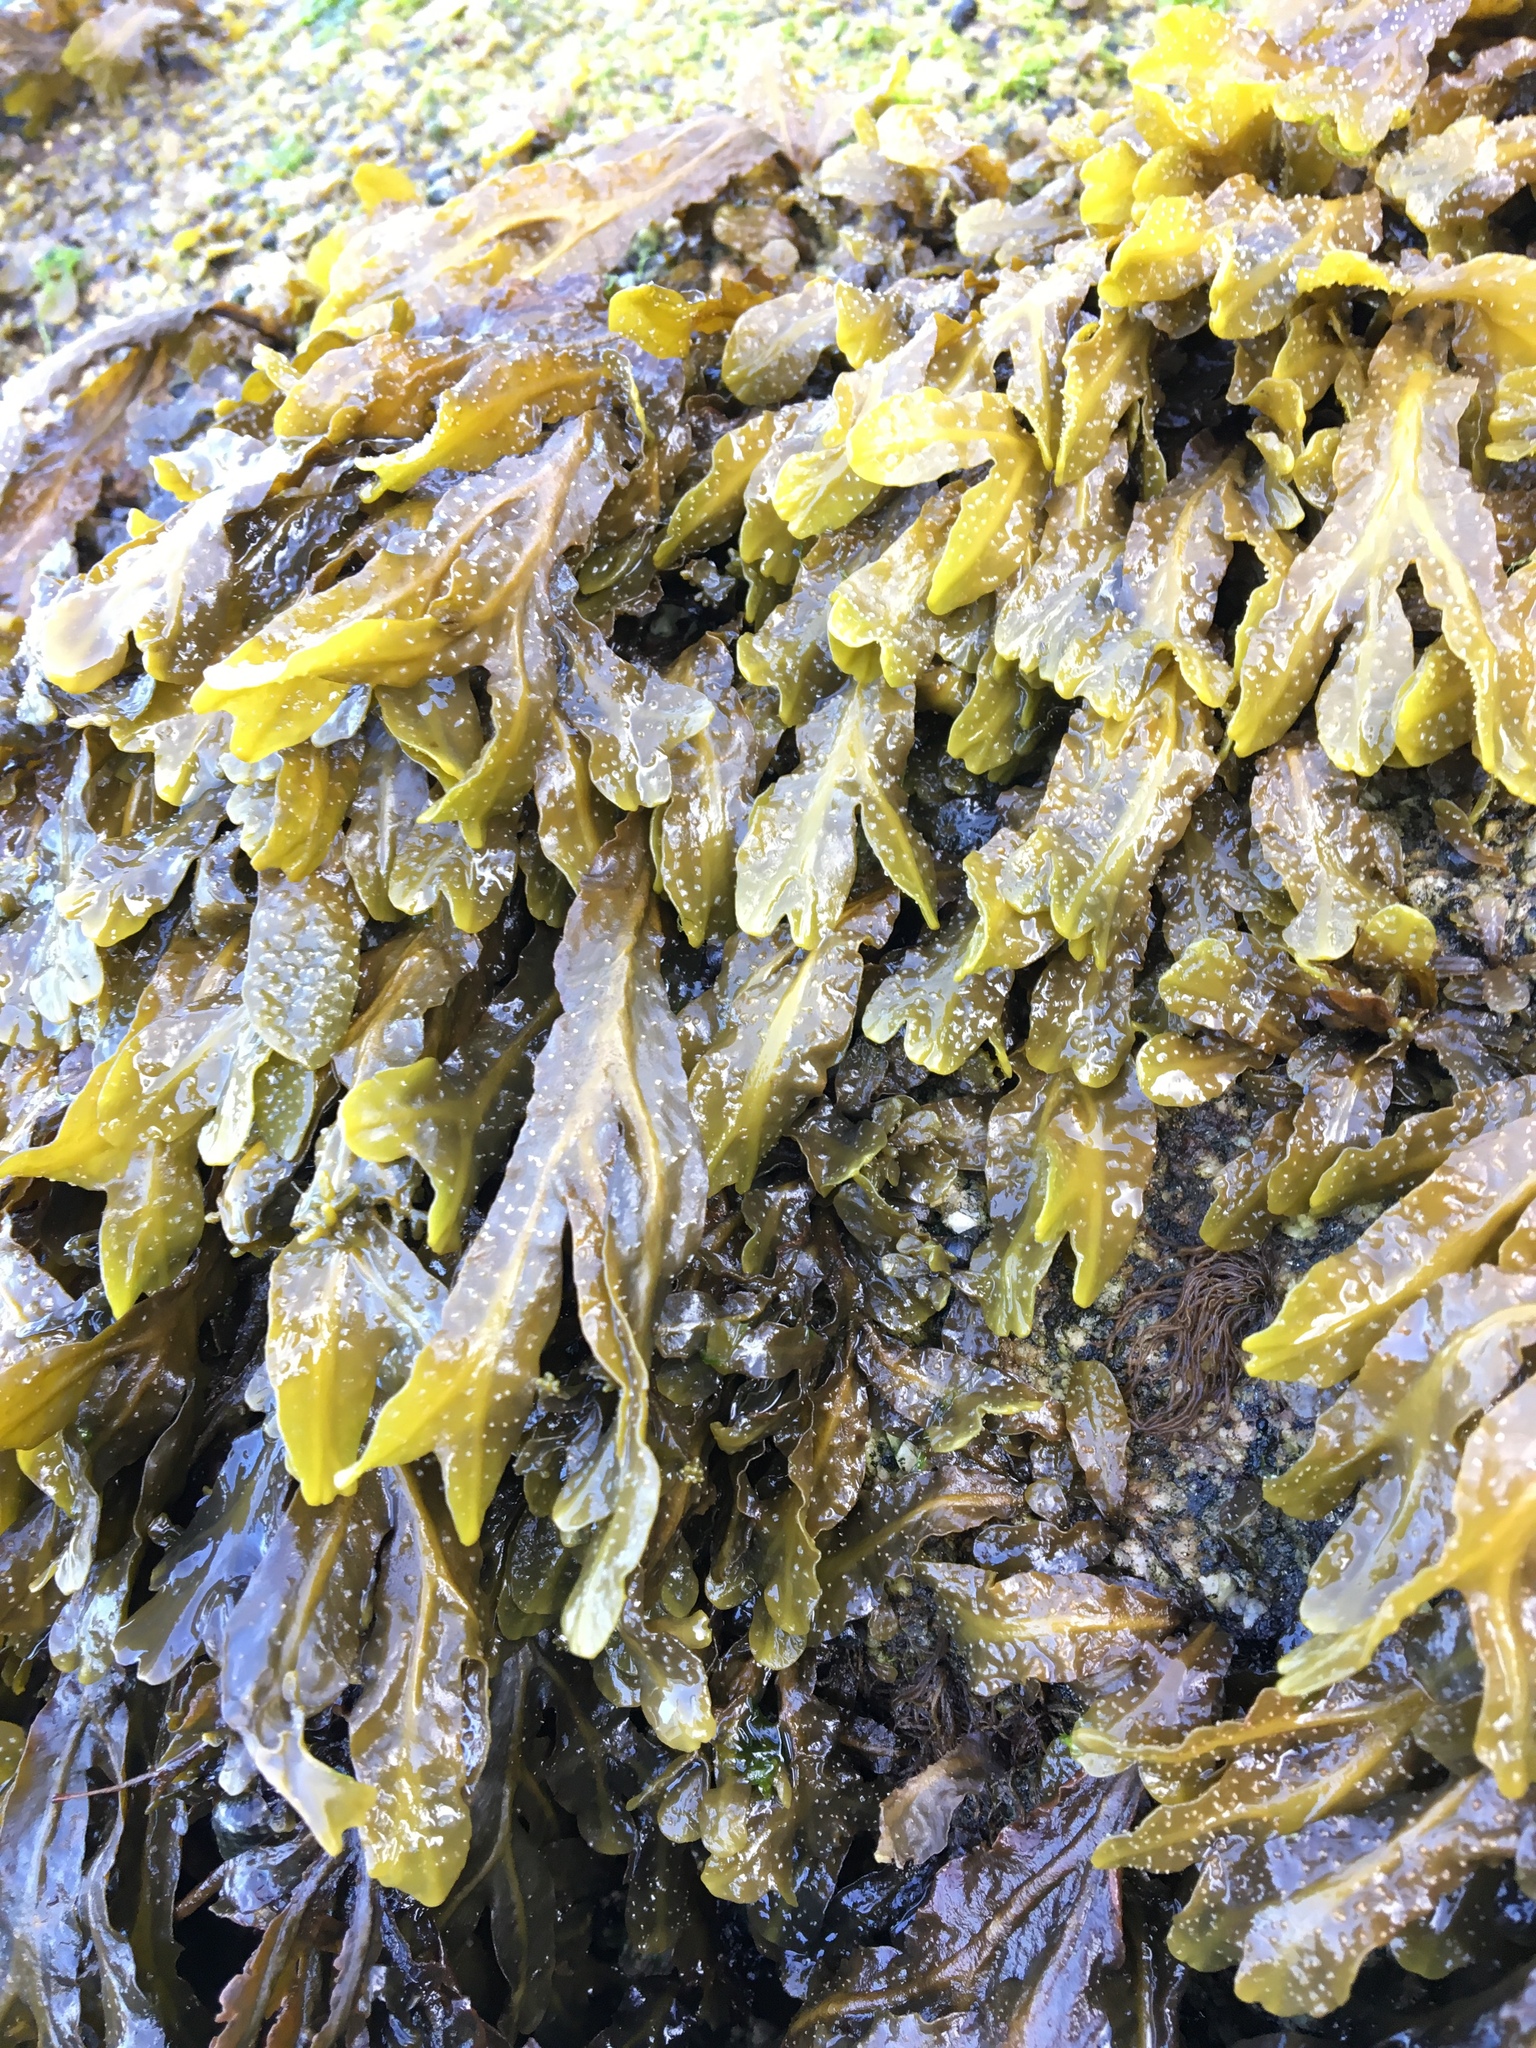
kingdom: Chromista
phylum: Ochrophyta
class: Phaeophyceae
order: Fucales
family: Fucaceae
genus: Fucus
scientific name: Fucus distichus
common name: Rockweed
